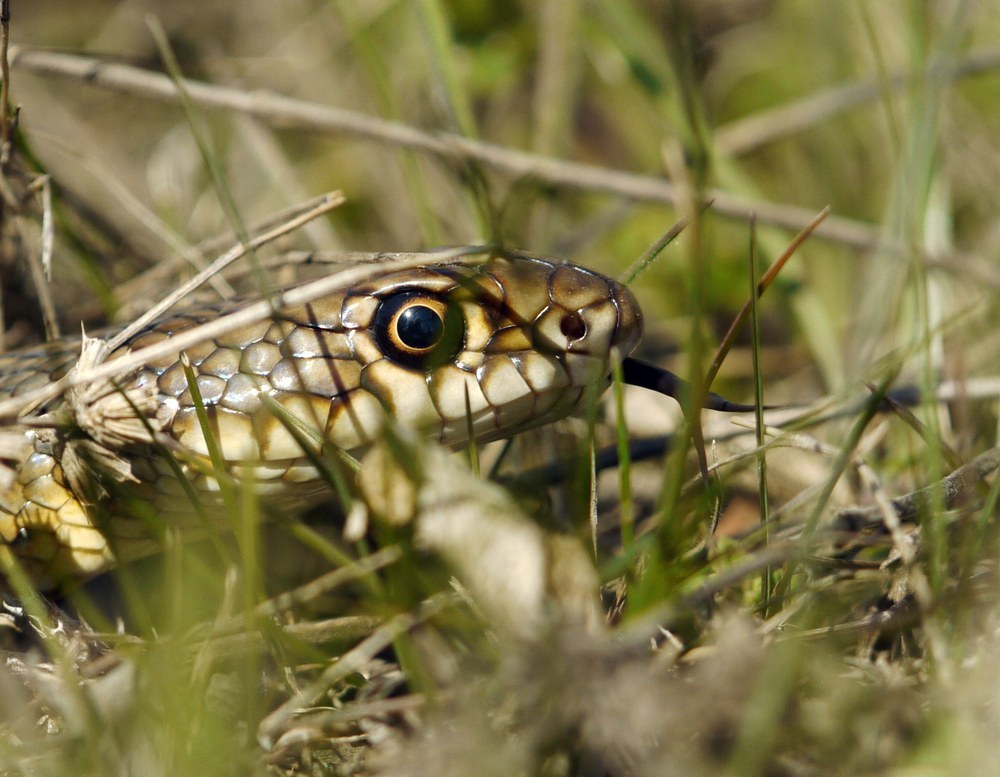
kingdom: Animalia
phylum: Chordata
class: Squamata
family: Colubridae
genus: Dolichophis
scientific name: Dolichophis caspius
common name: Large whip snake
